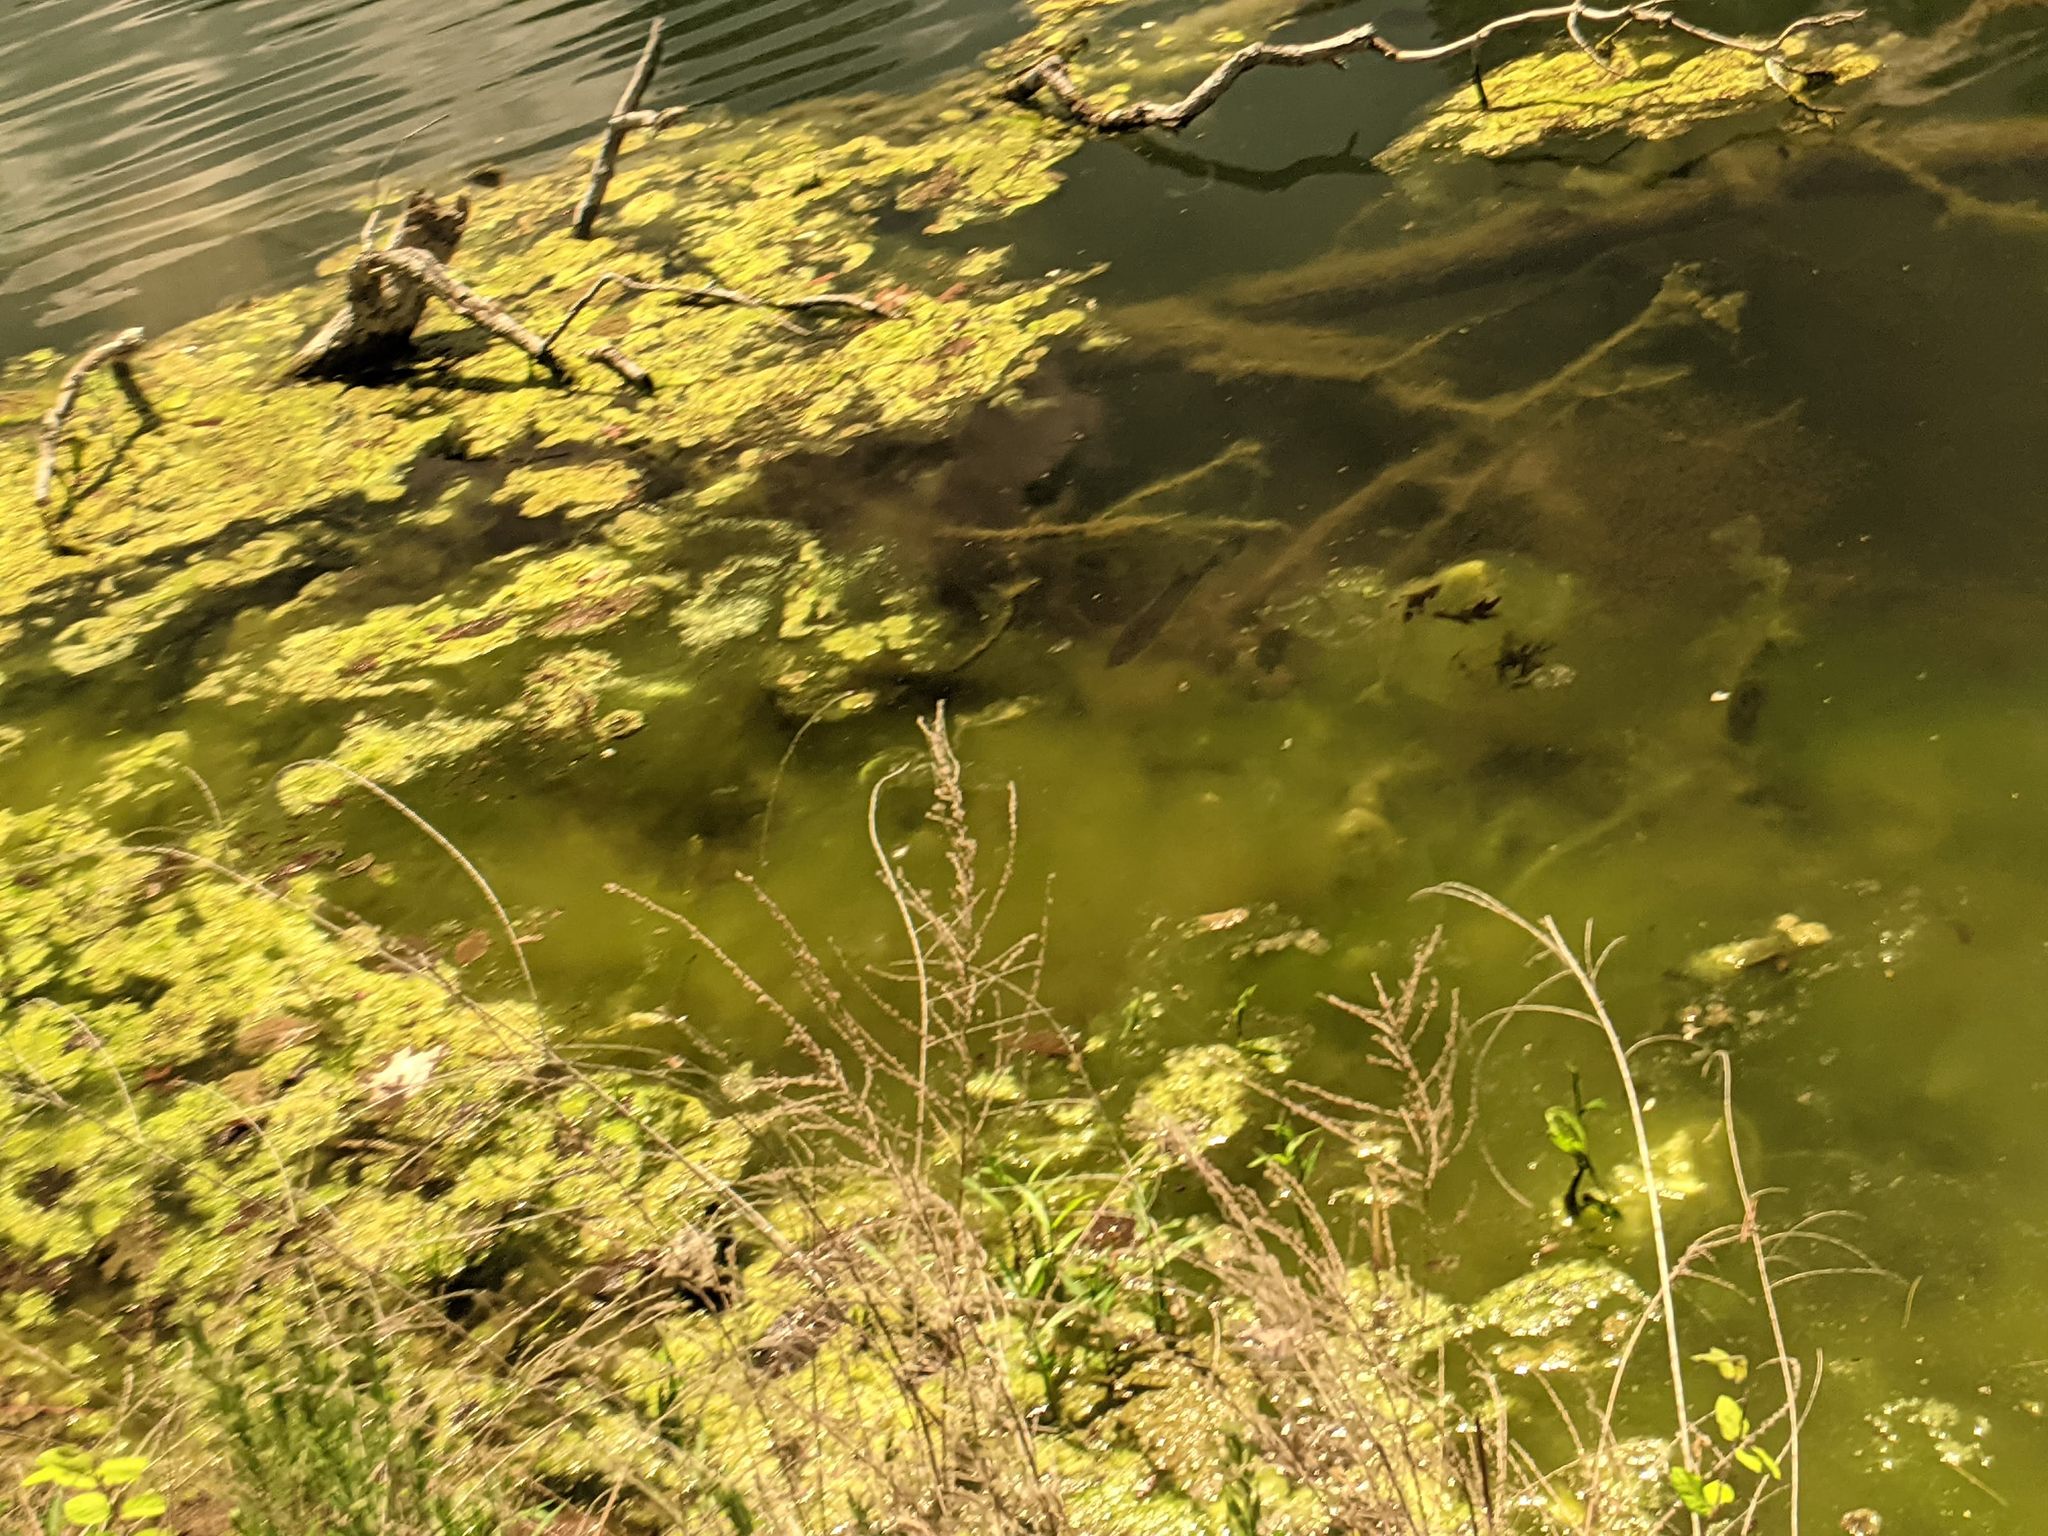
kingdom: Animalia
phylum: Chordata
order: Perciformes
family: Centrarchidae
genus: Micropterus
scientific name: Micropterus
